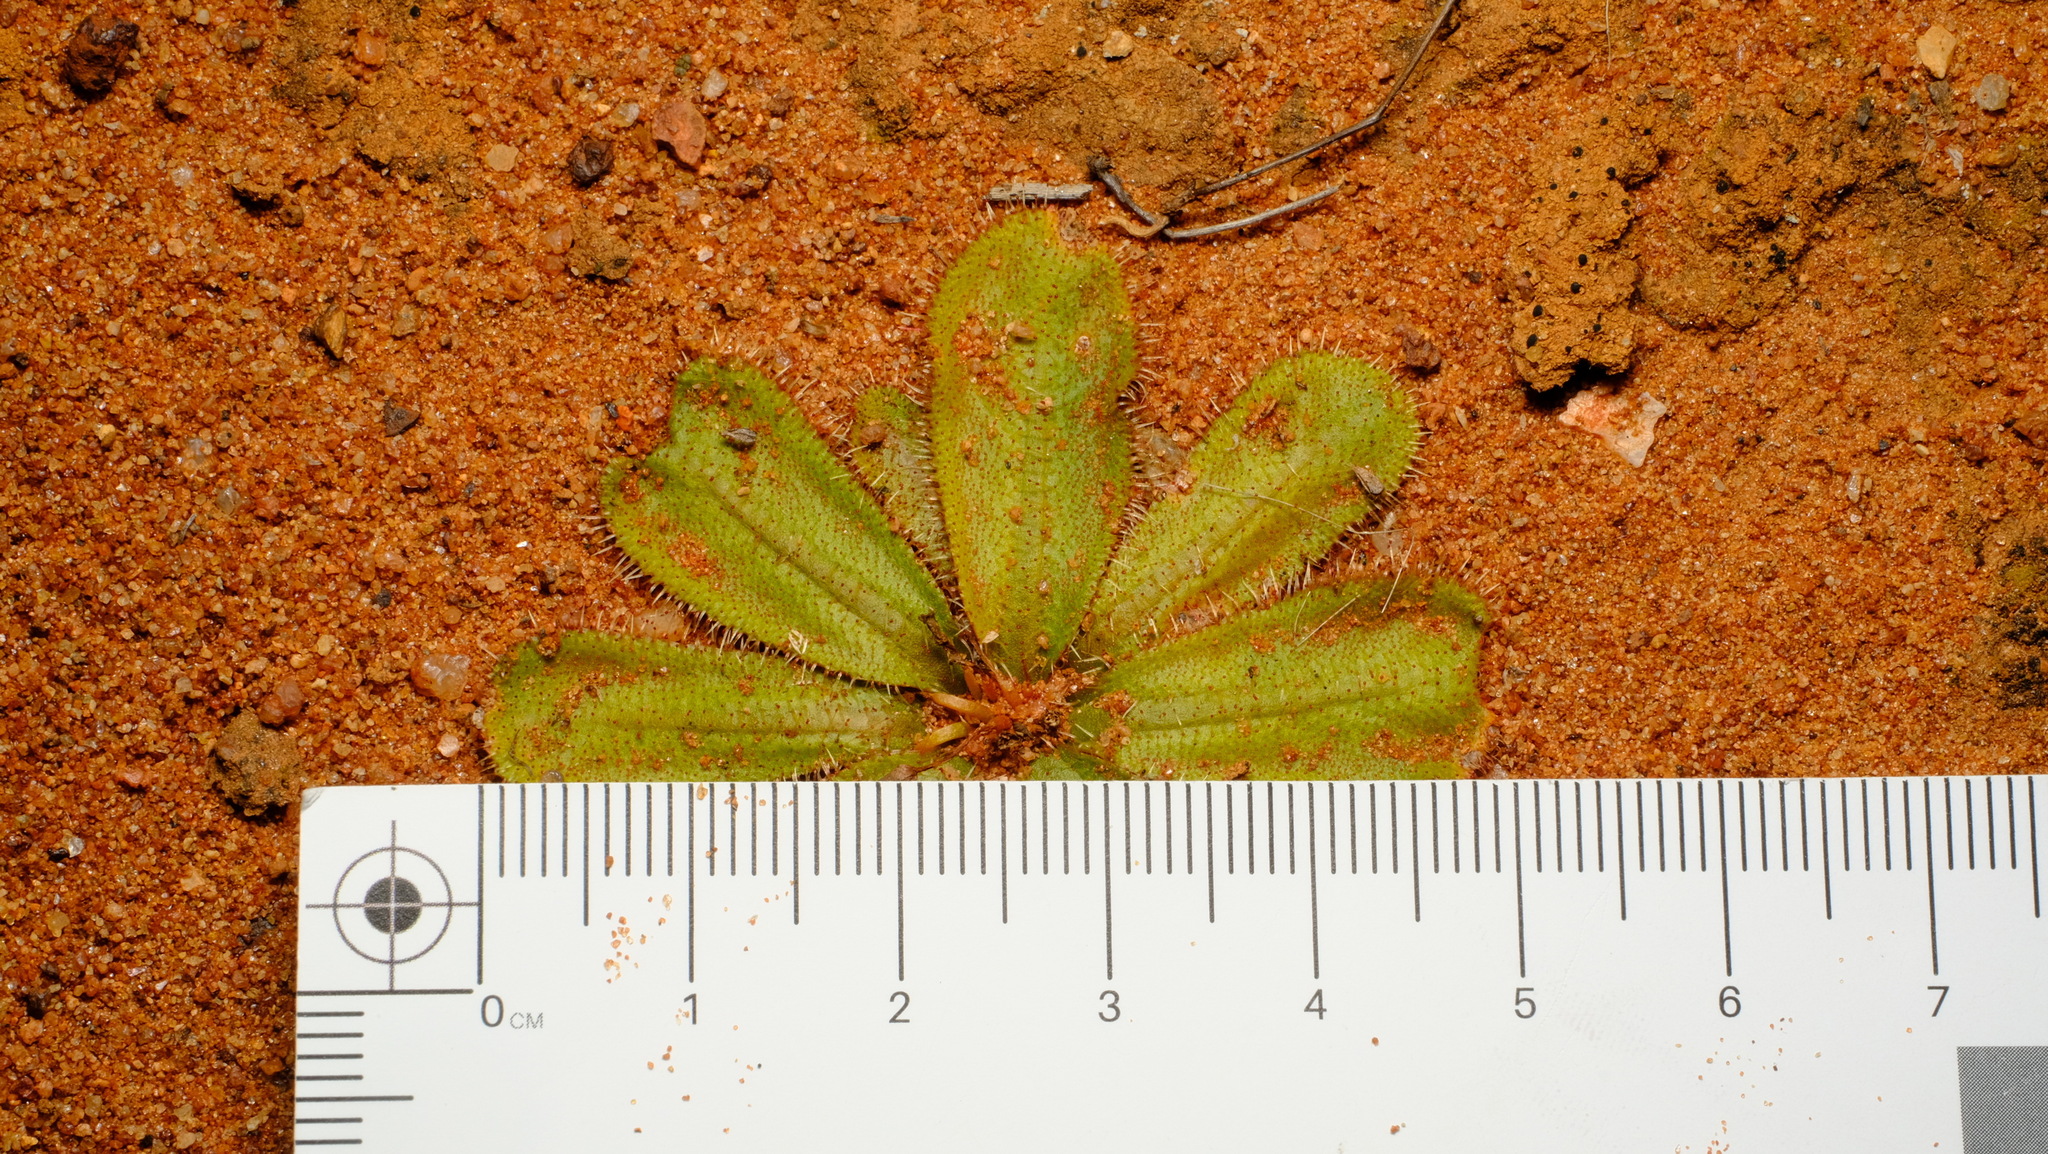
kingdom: Plantae
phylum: Tracheophyta
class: Magnoliopsida
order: Caryophyllales
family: Droseraceae
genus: Drosera
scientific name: Drosera bulbosa
